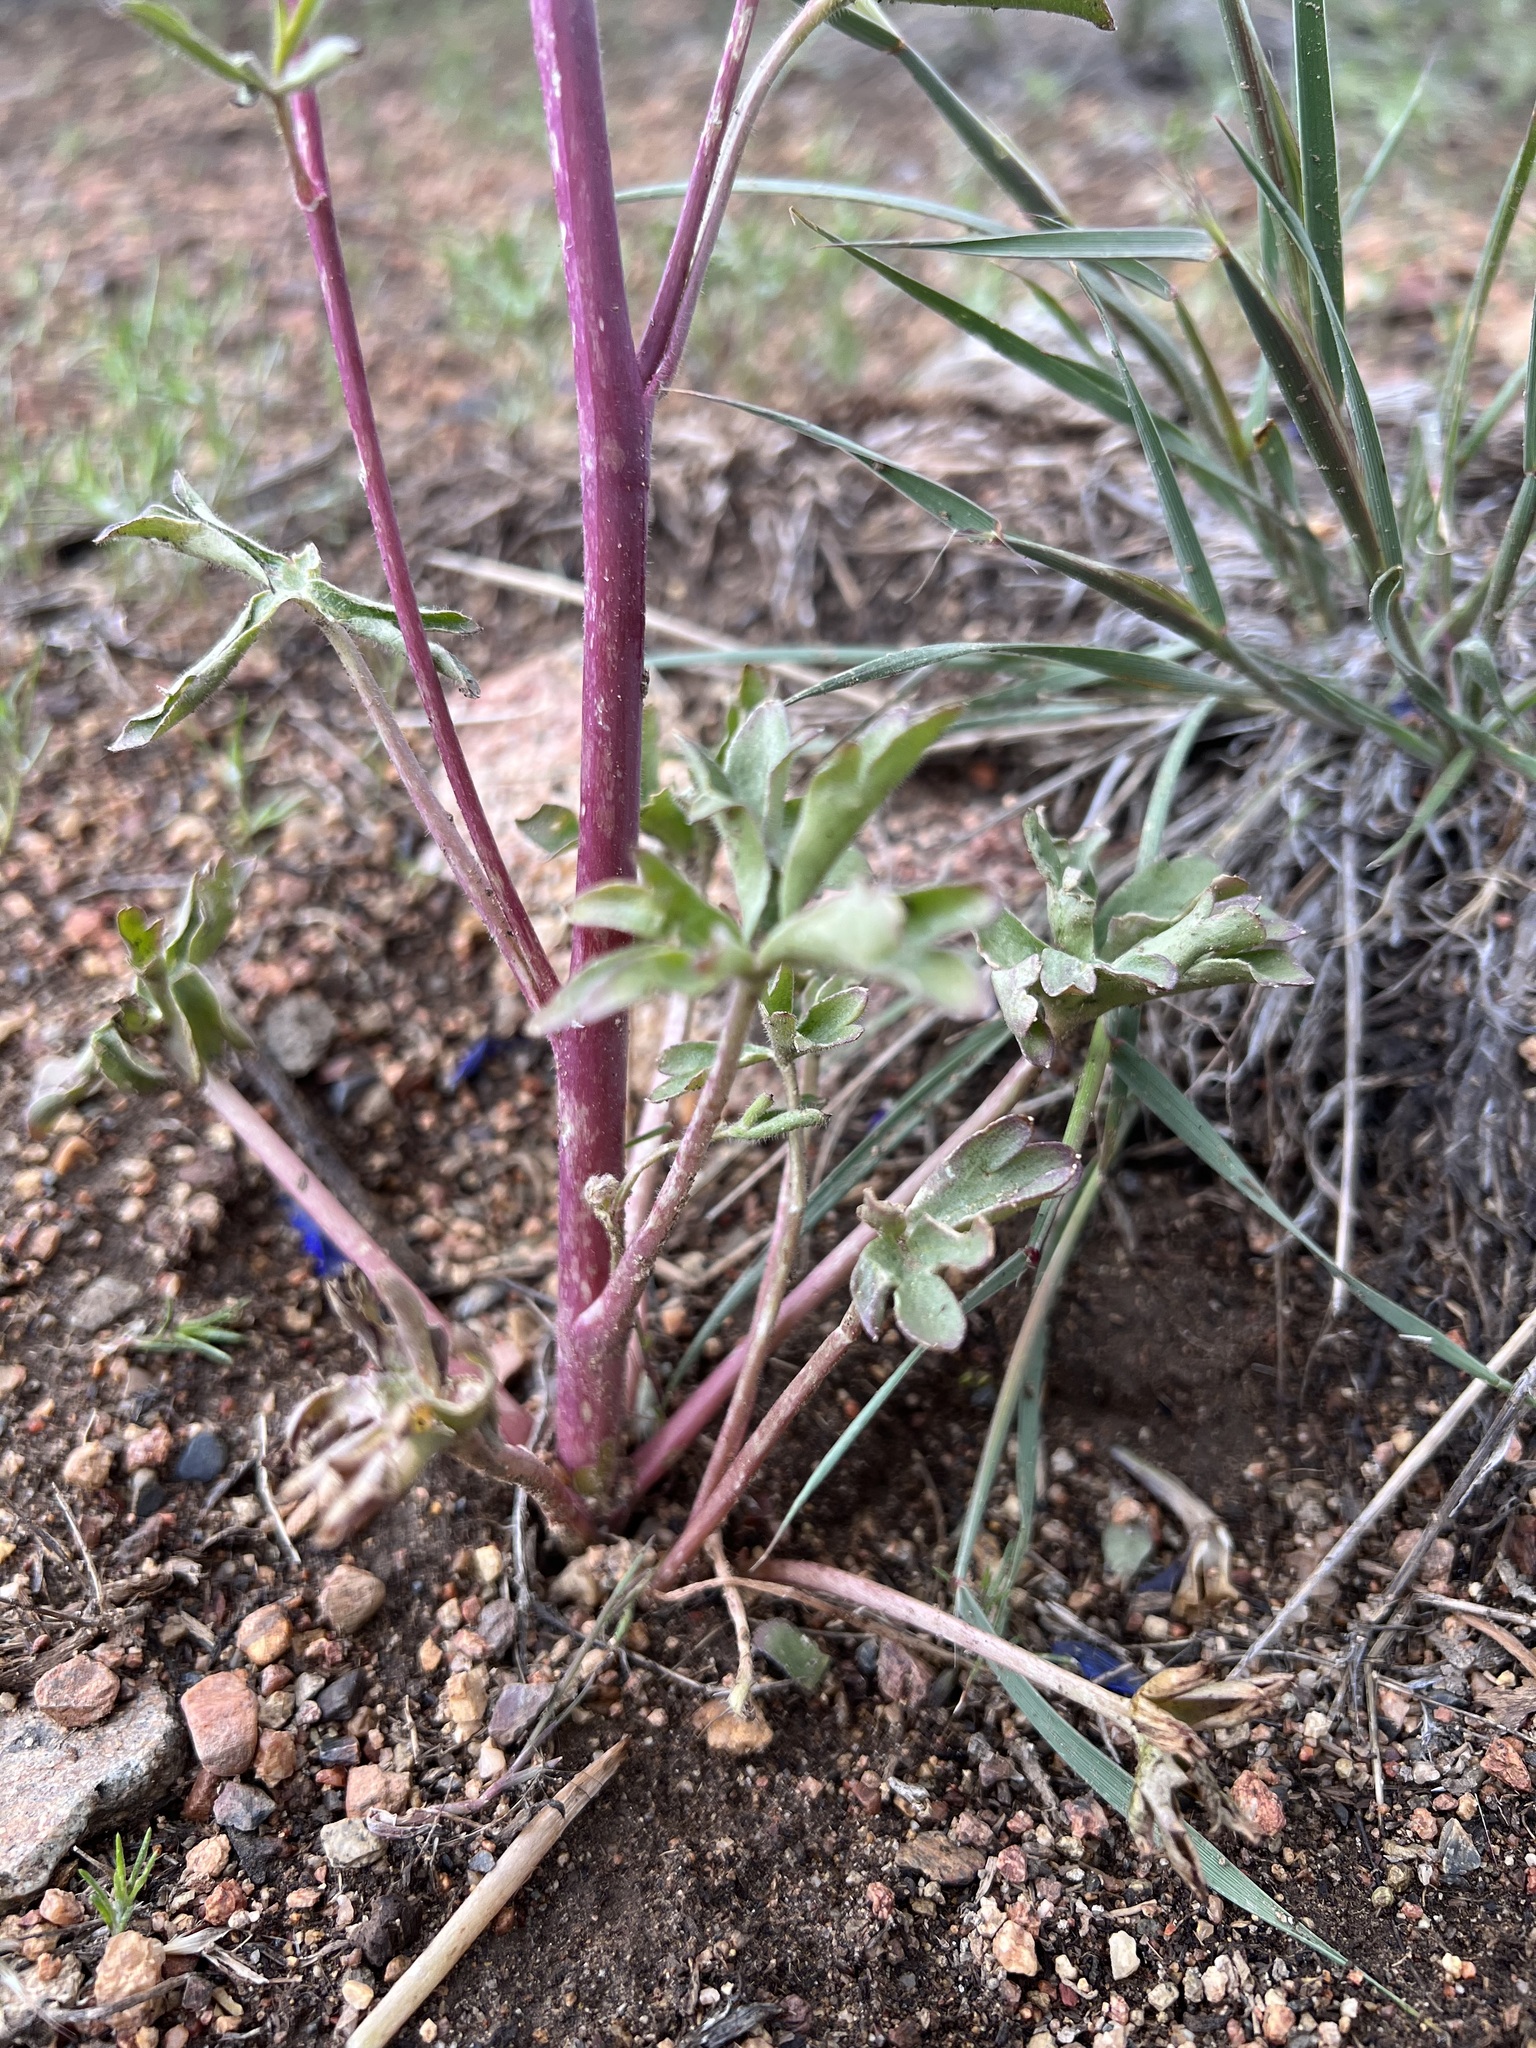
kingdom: Plantae
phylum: Tracheophyta
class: Magnoliopsida
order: Ranunculales
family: Ranunculaceae
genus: Delphinium
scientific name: Delphinium andersonii
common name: Anderson's larkspur
